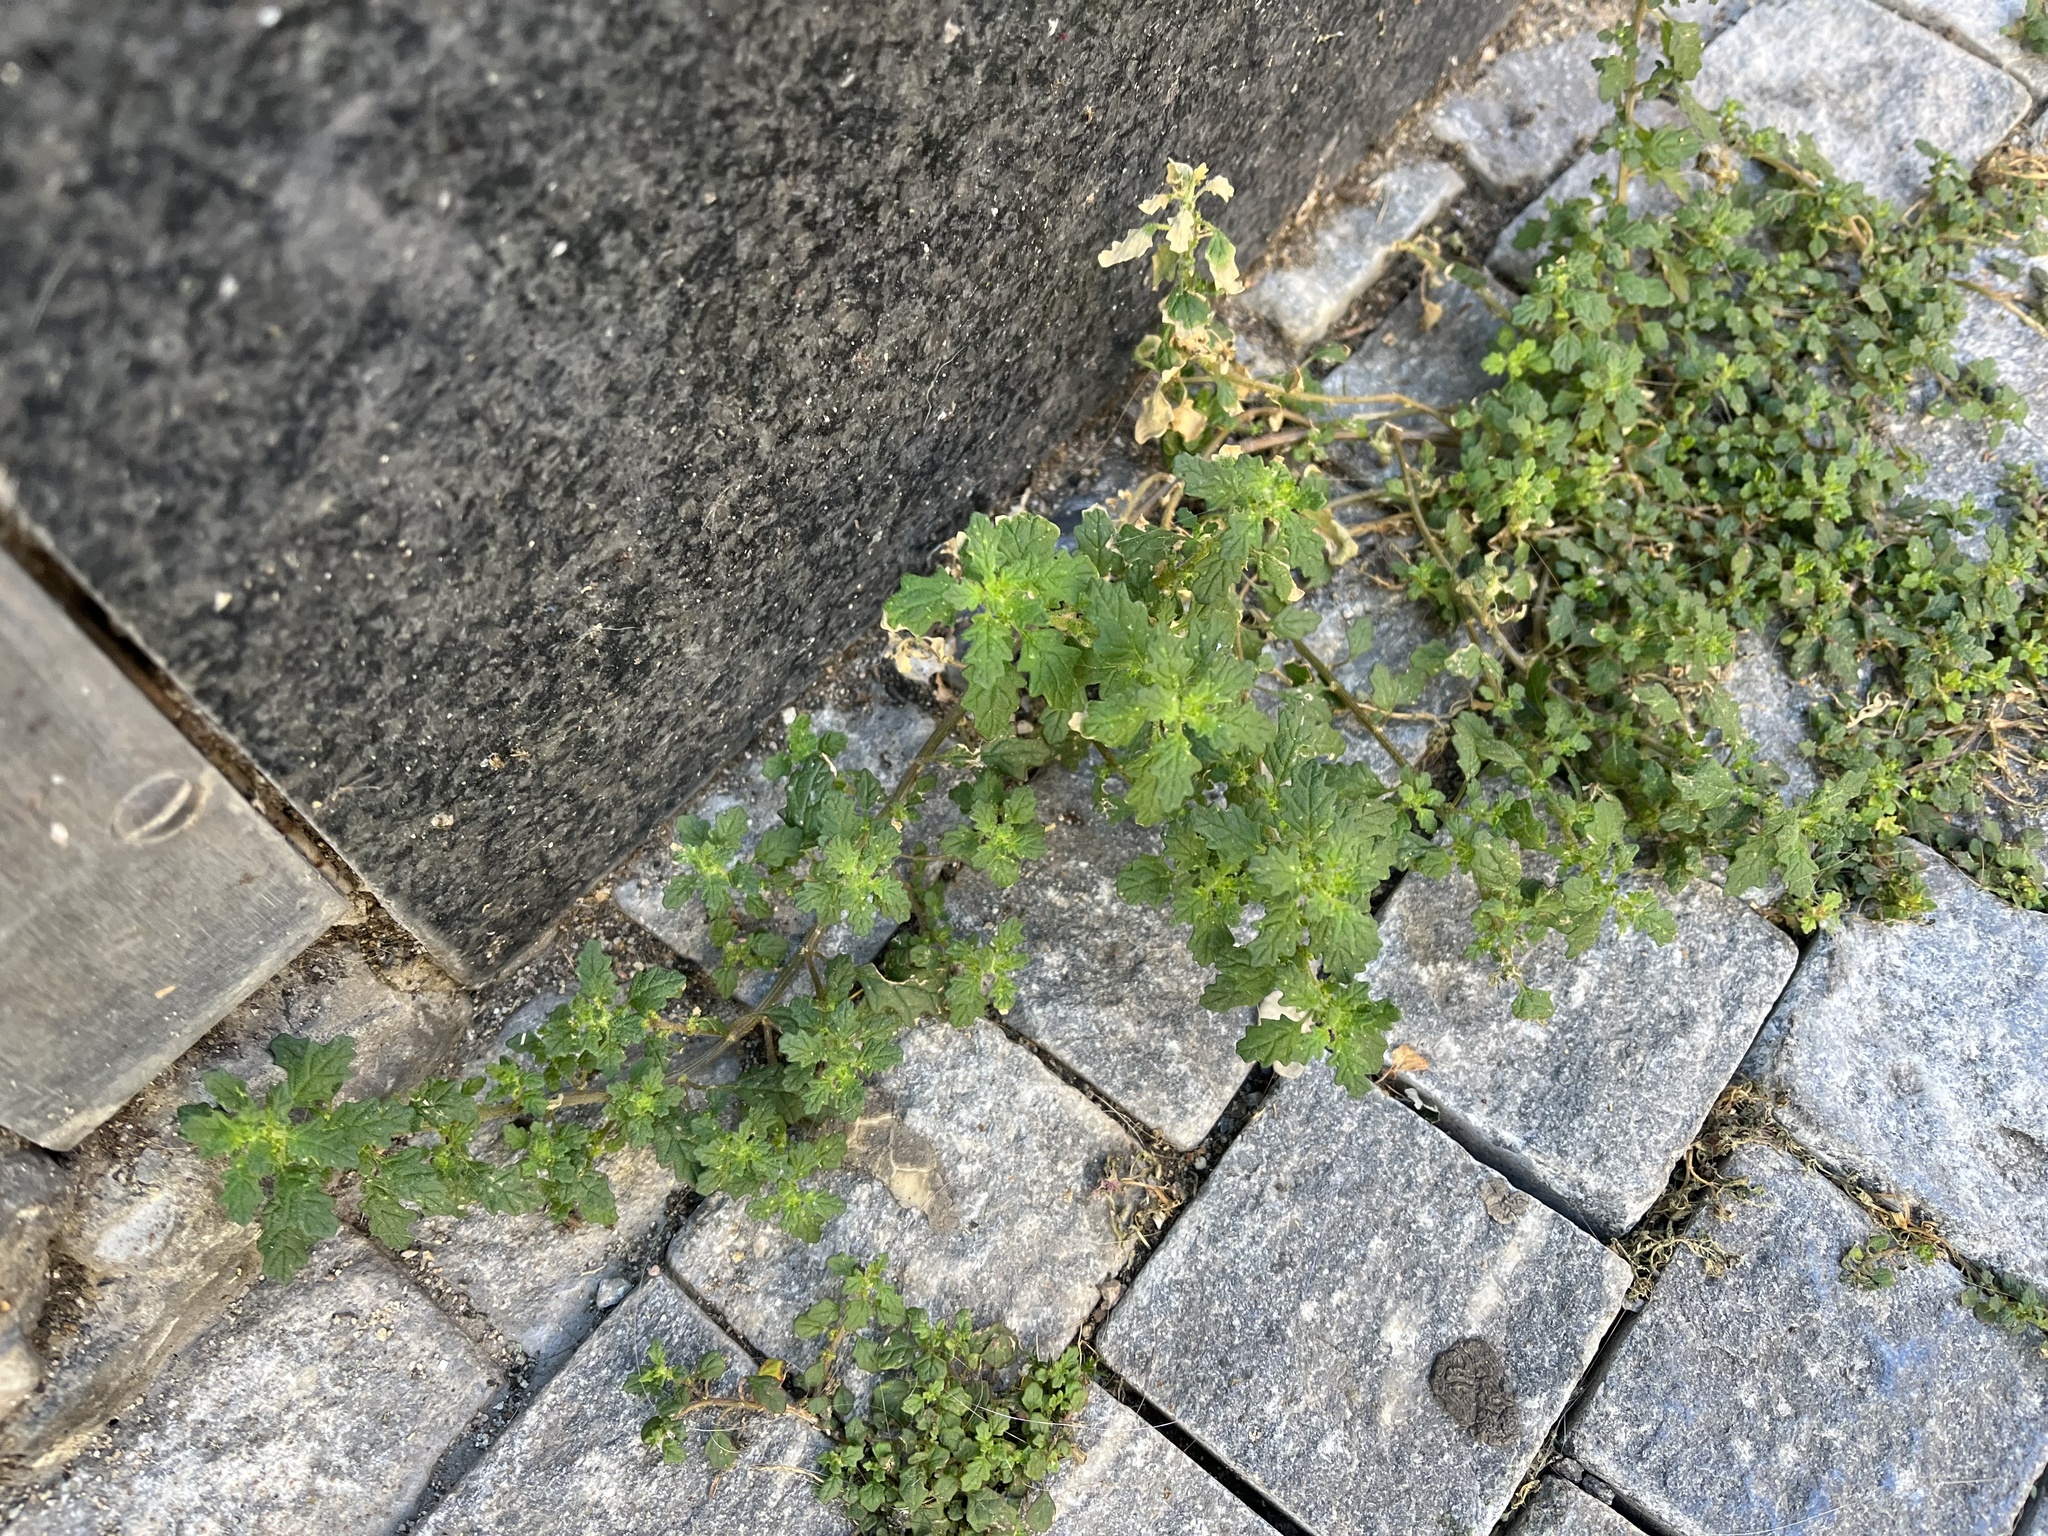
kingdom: Plantae
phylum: Tracheophyta
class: Magnoliopsida
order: Caryophyllales
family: Amaranthaceae
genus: Dysphania
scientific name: Dysphania pumilio
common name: Clammy goosefoot
